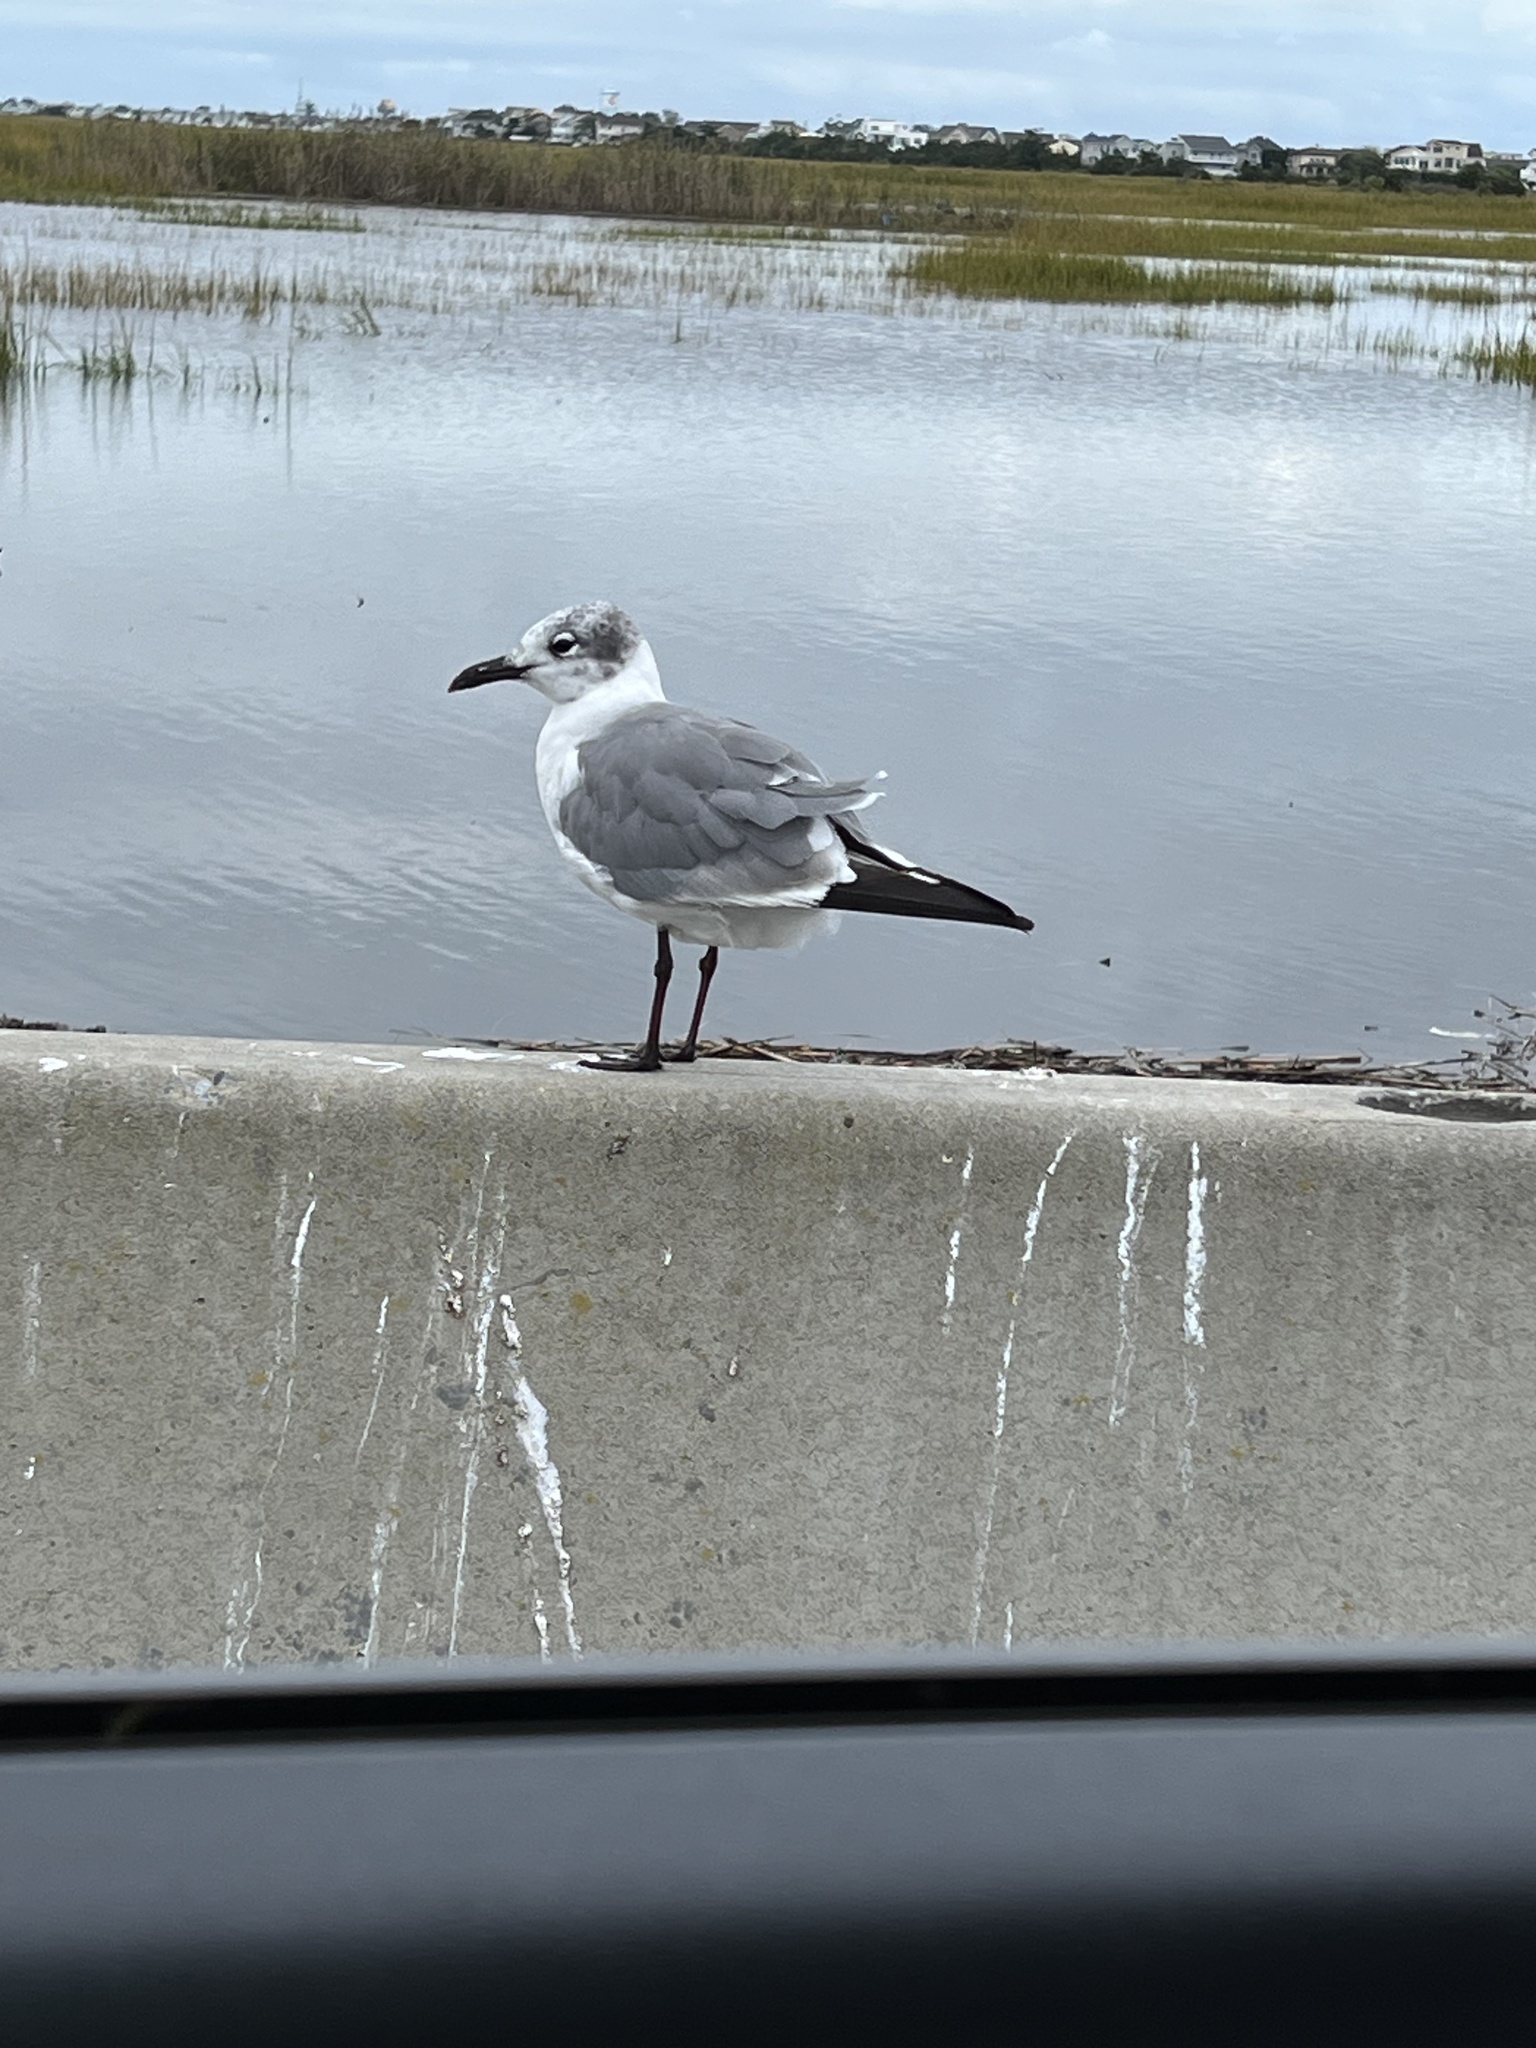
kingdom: Animalia
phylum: Chordata
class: Aves
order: Charadriiformes
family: Laridae
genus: Leucophaeus
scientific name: Leucophaeus atricilla
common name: Laughing gull
